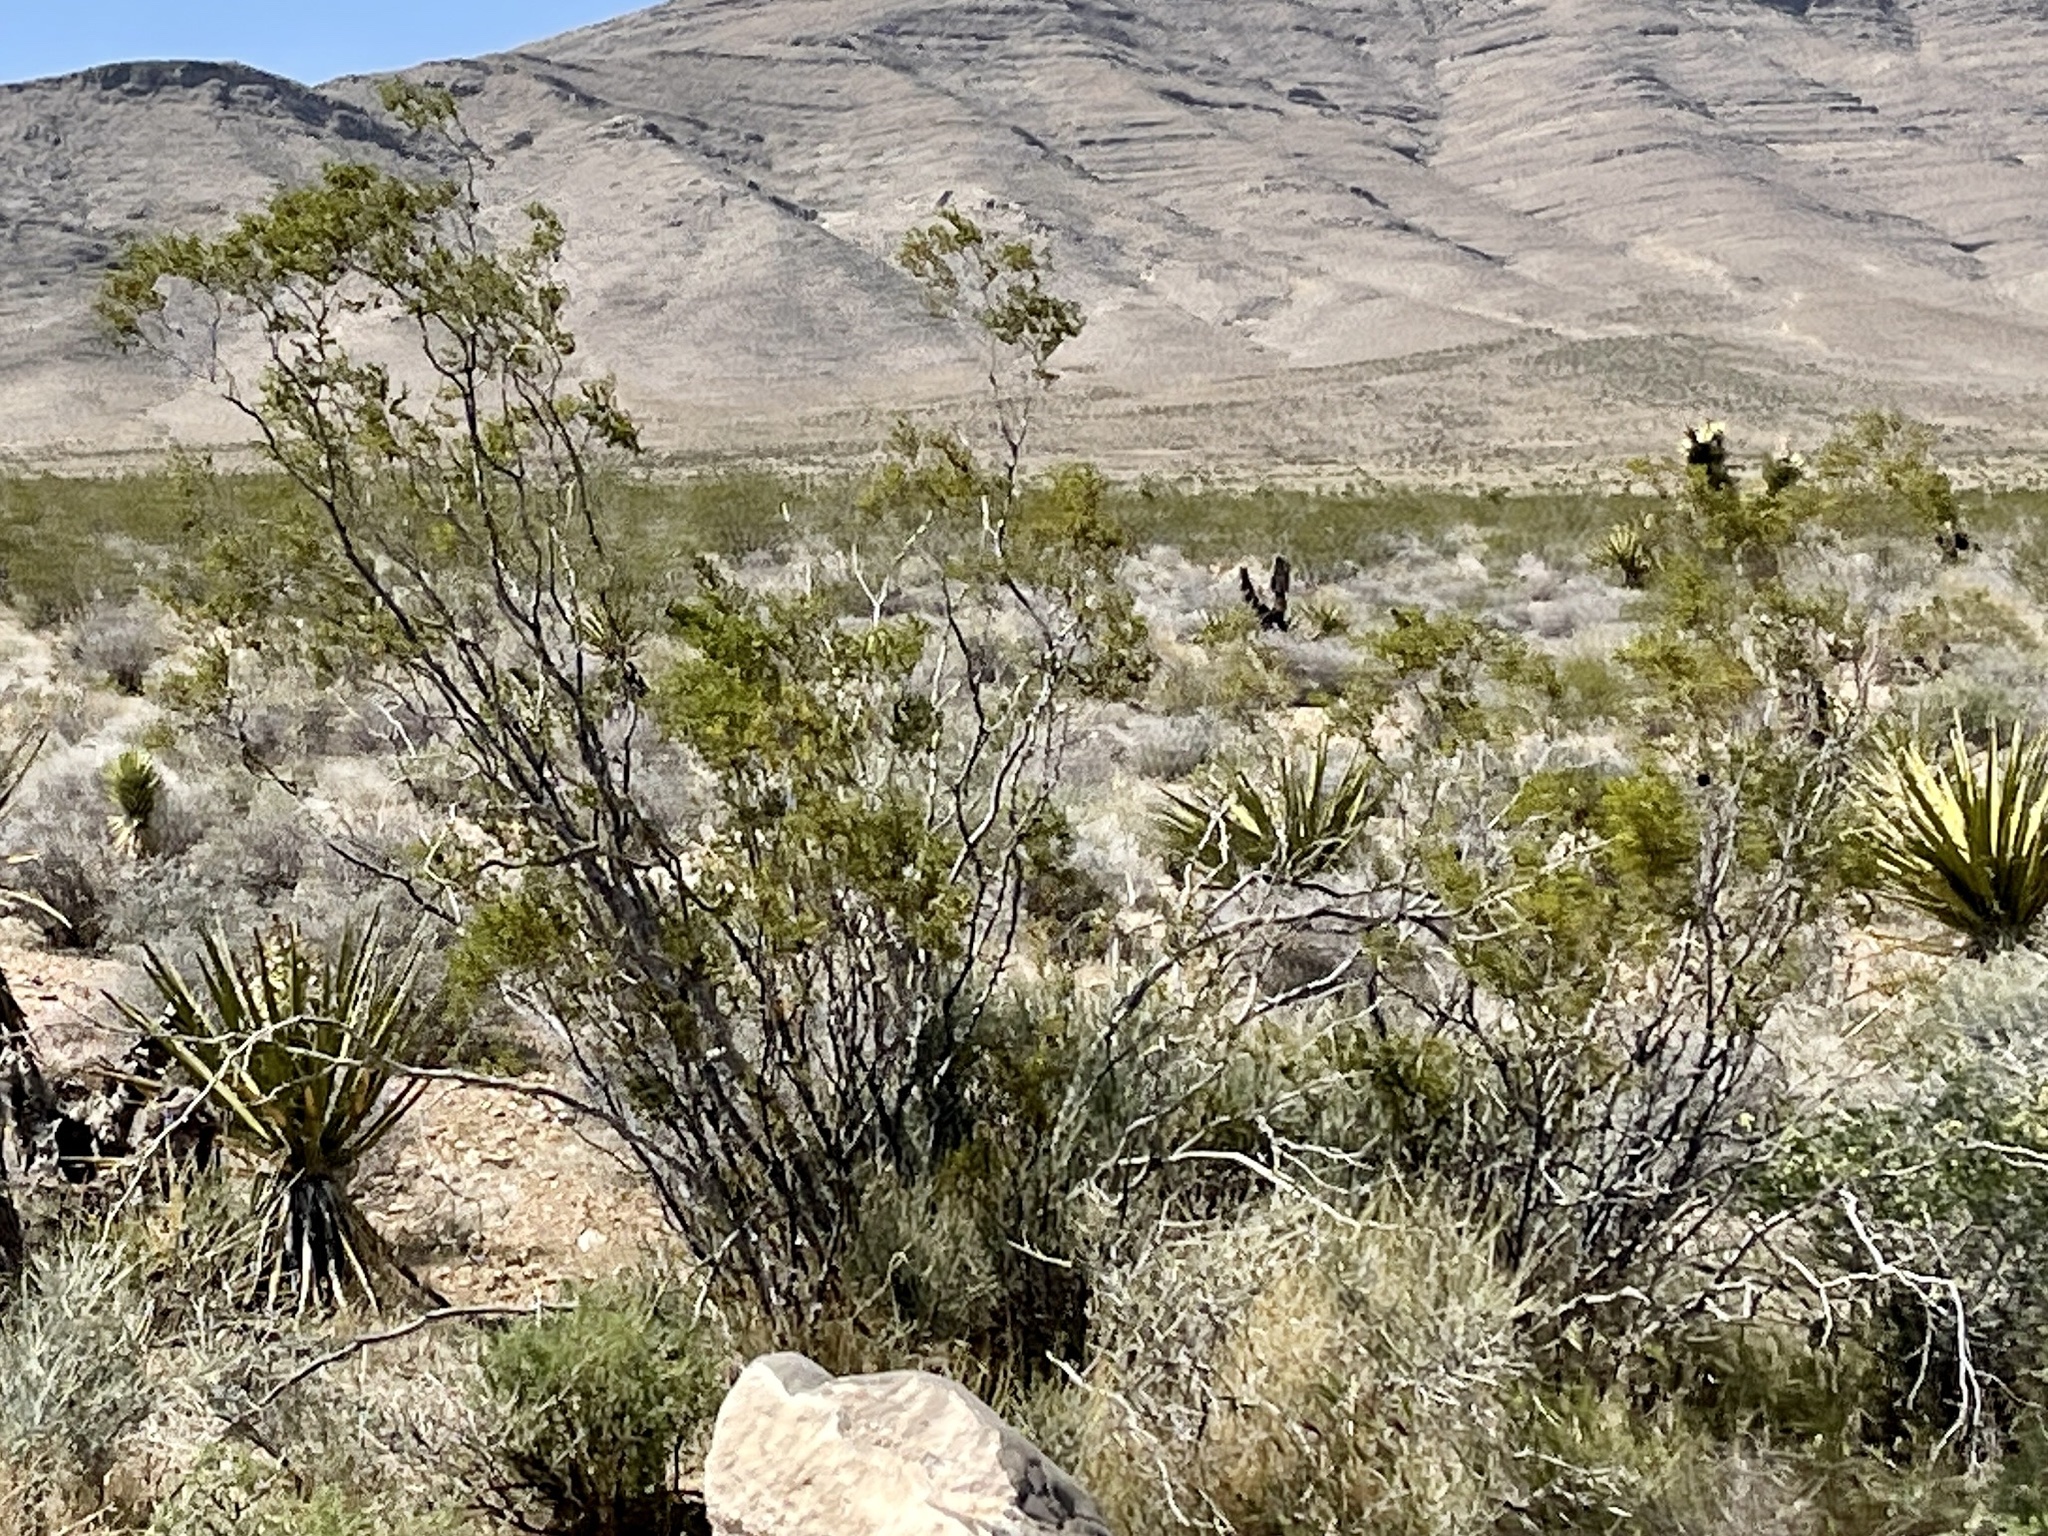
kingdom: Plantae
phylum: Tracheophyta
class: Magnoliopsida
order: Zygophyllales
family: Zygophyllaceae
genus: Larrea
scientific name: Larrea tridentata
